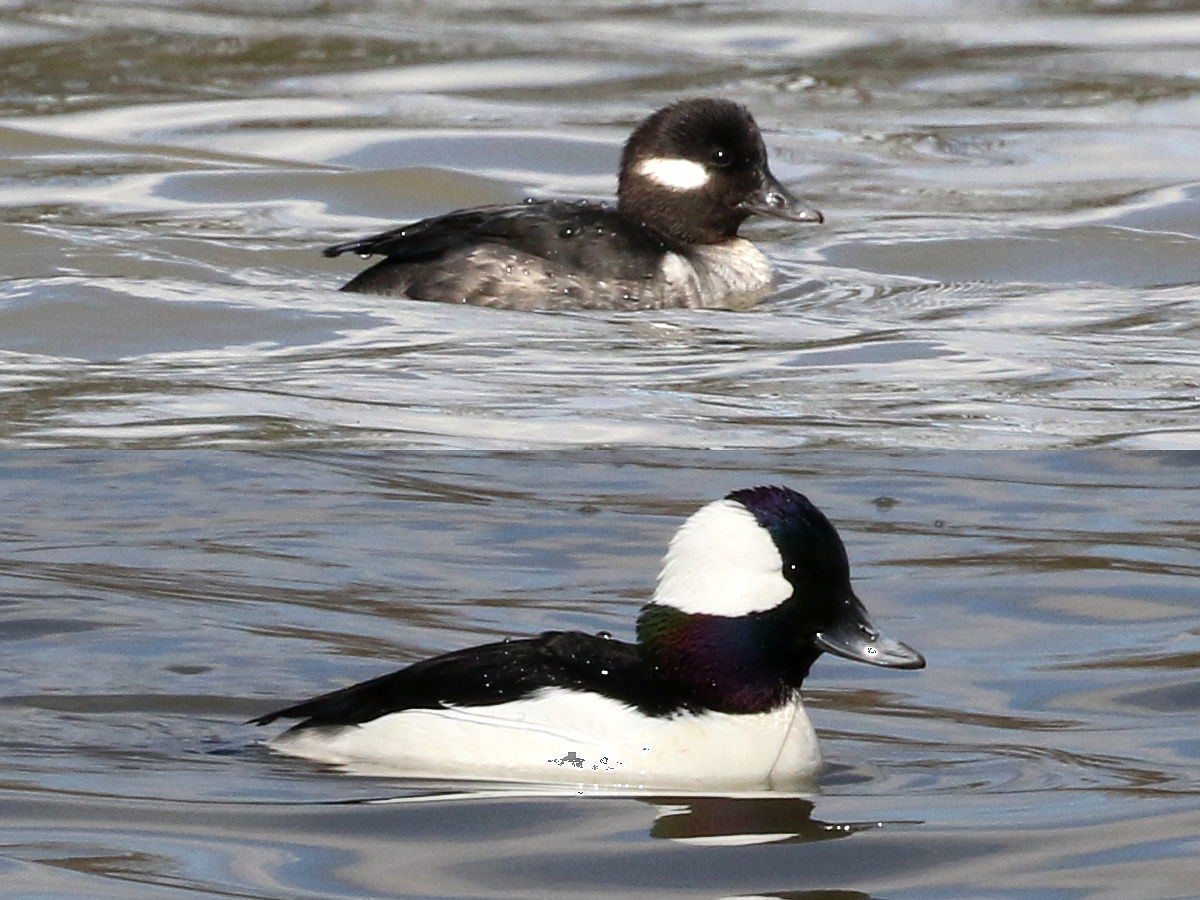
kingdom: Animalia
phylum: Chordata
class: Aves
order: Anseriformes
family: Anatidae
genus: Bucephala
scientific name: Bucephala albeola
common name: Bufflehead
